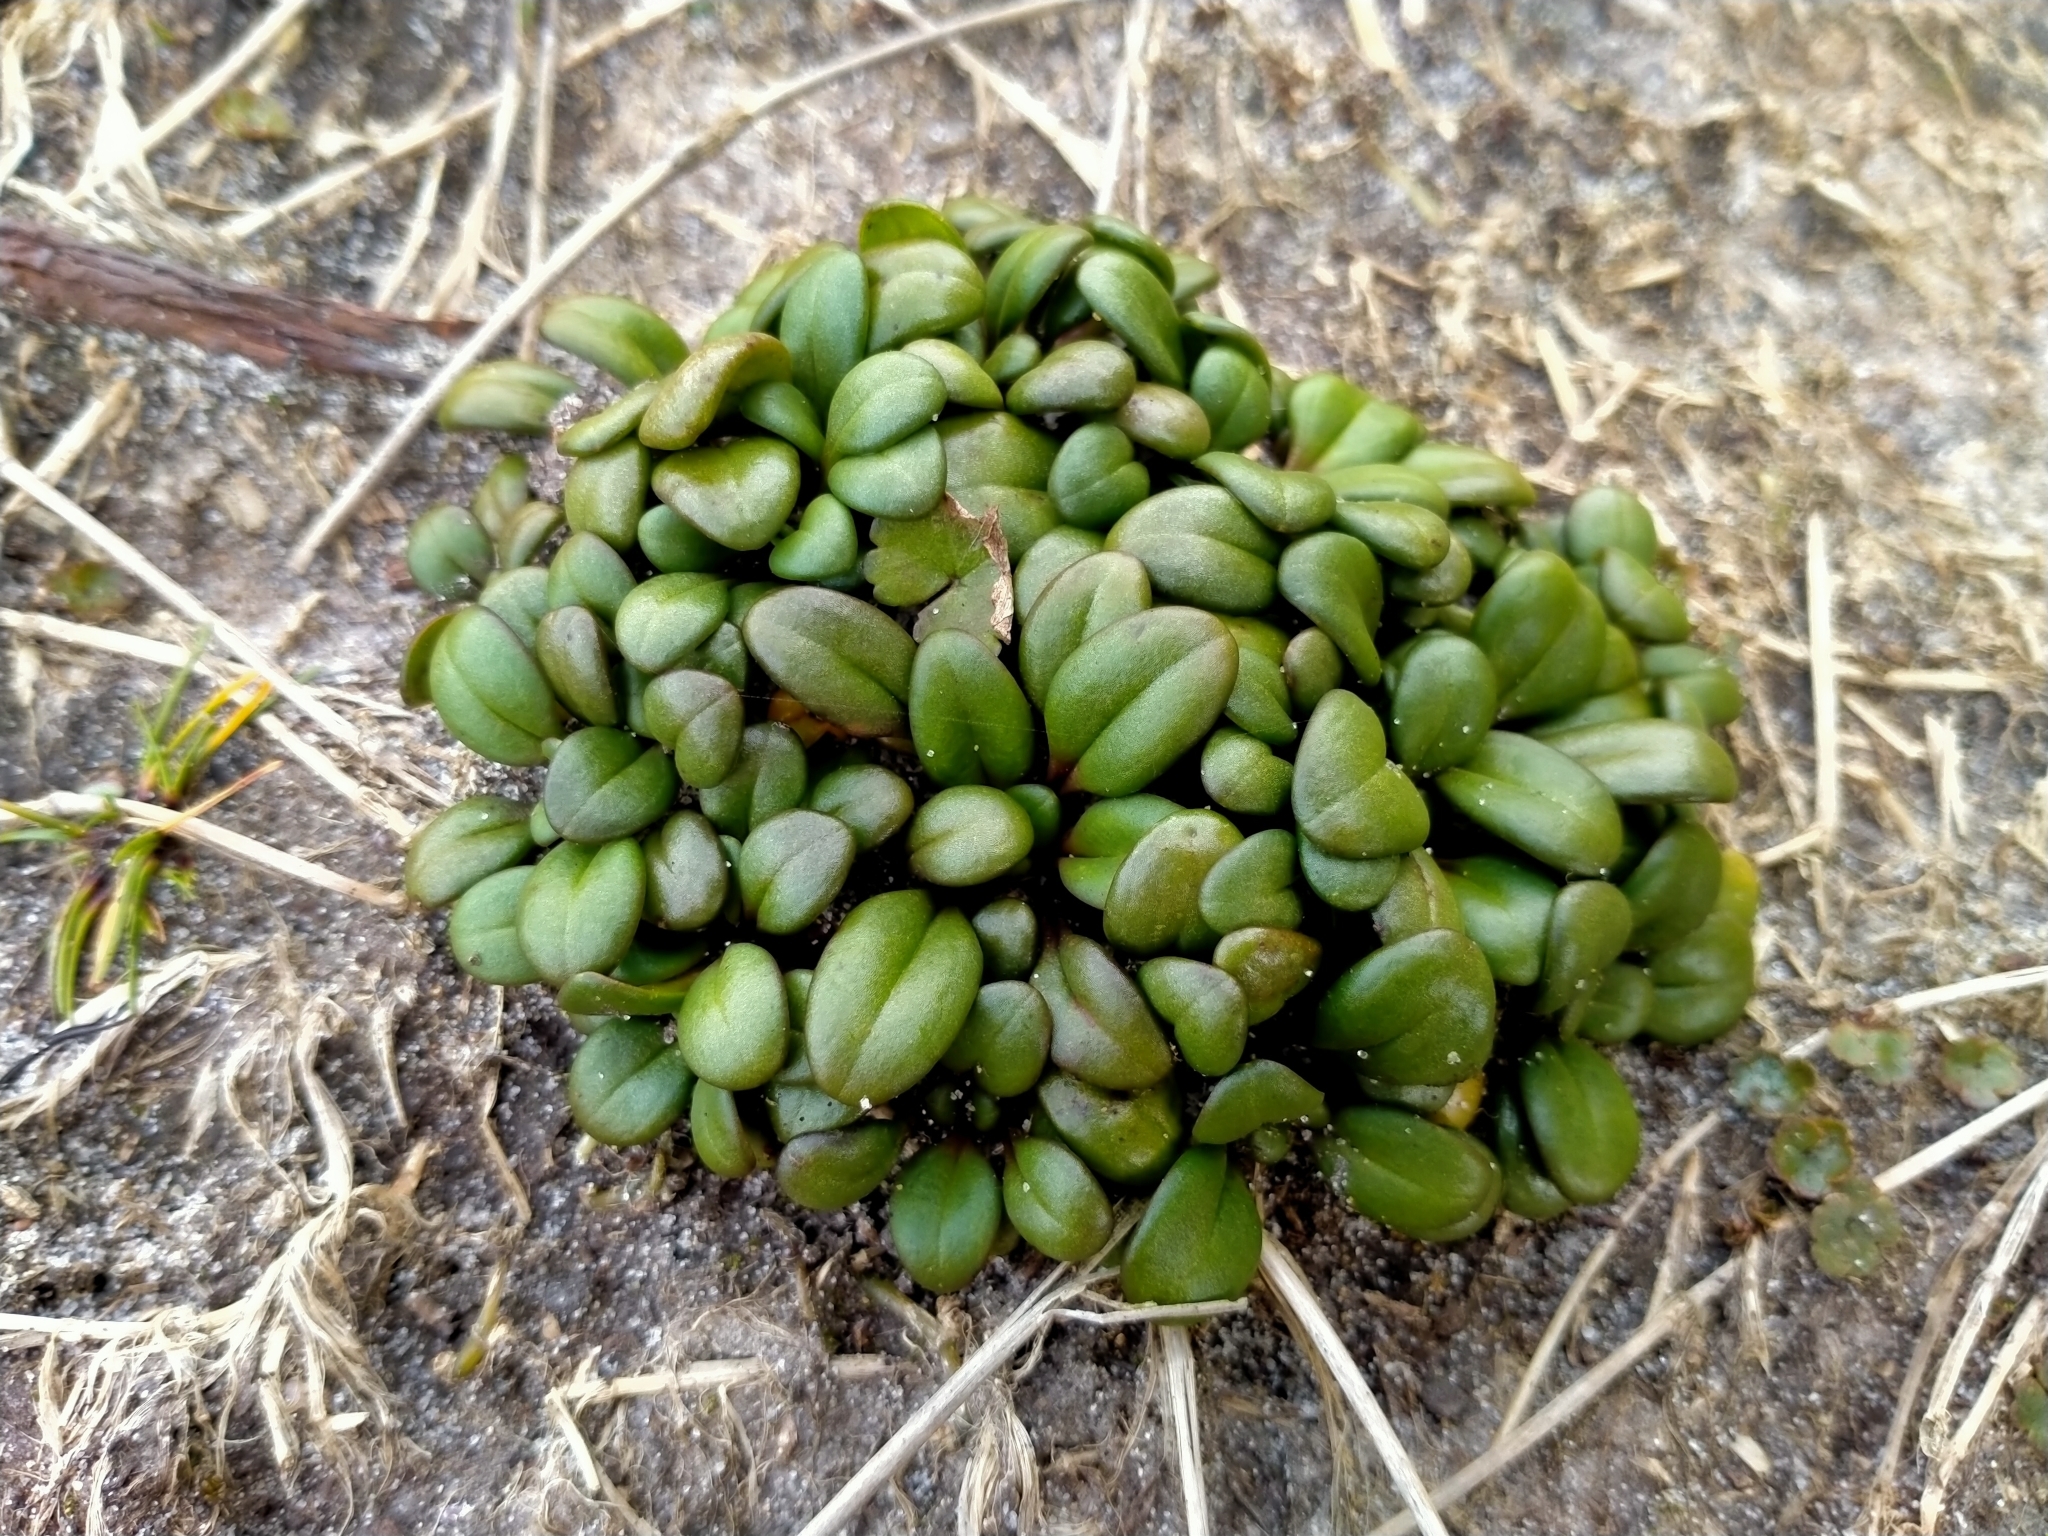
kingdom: Plantae
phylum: Tracheophyta
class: Magnoliopsida
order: Gentianales
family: Gentianaceae
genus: Gentianella
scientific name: Gentianella saxosa
